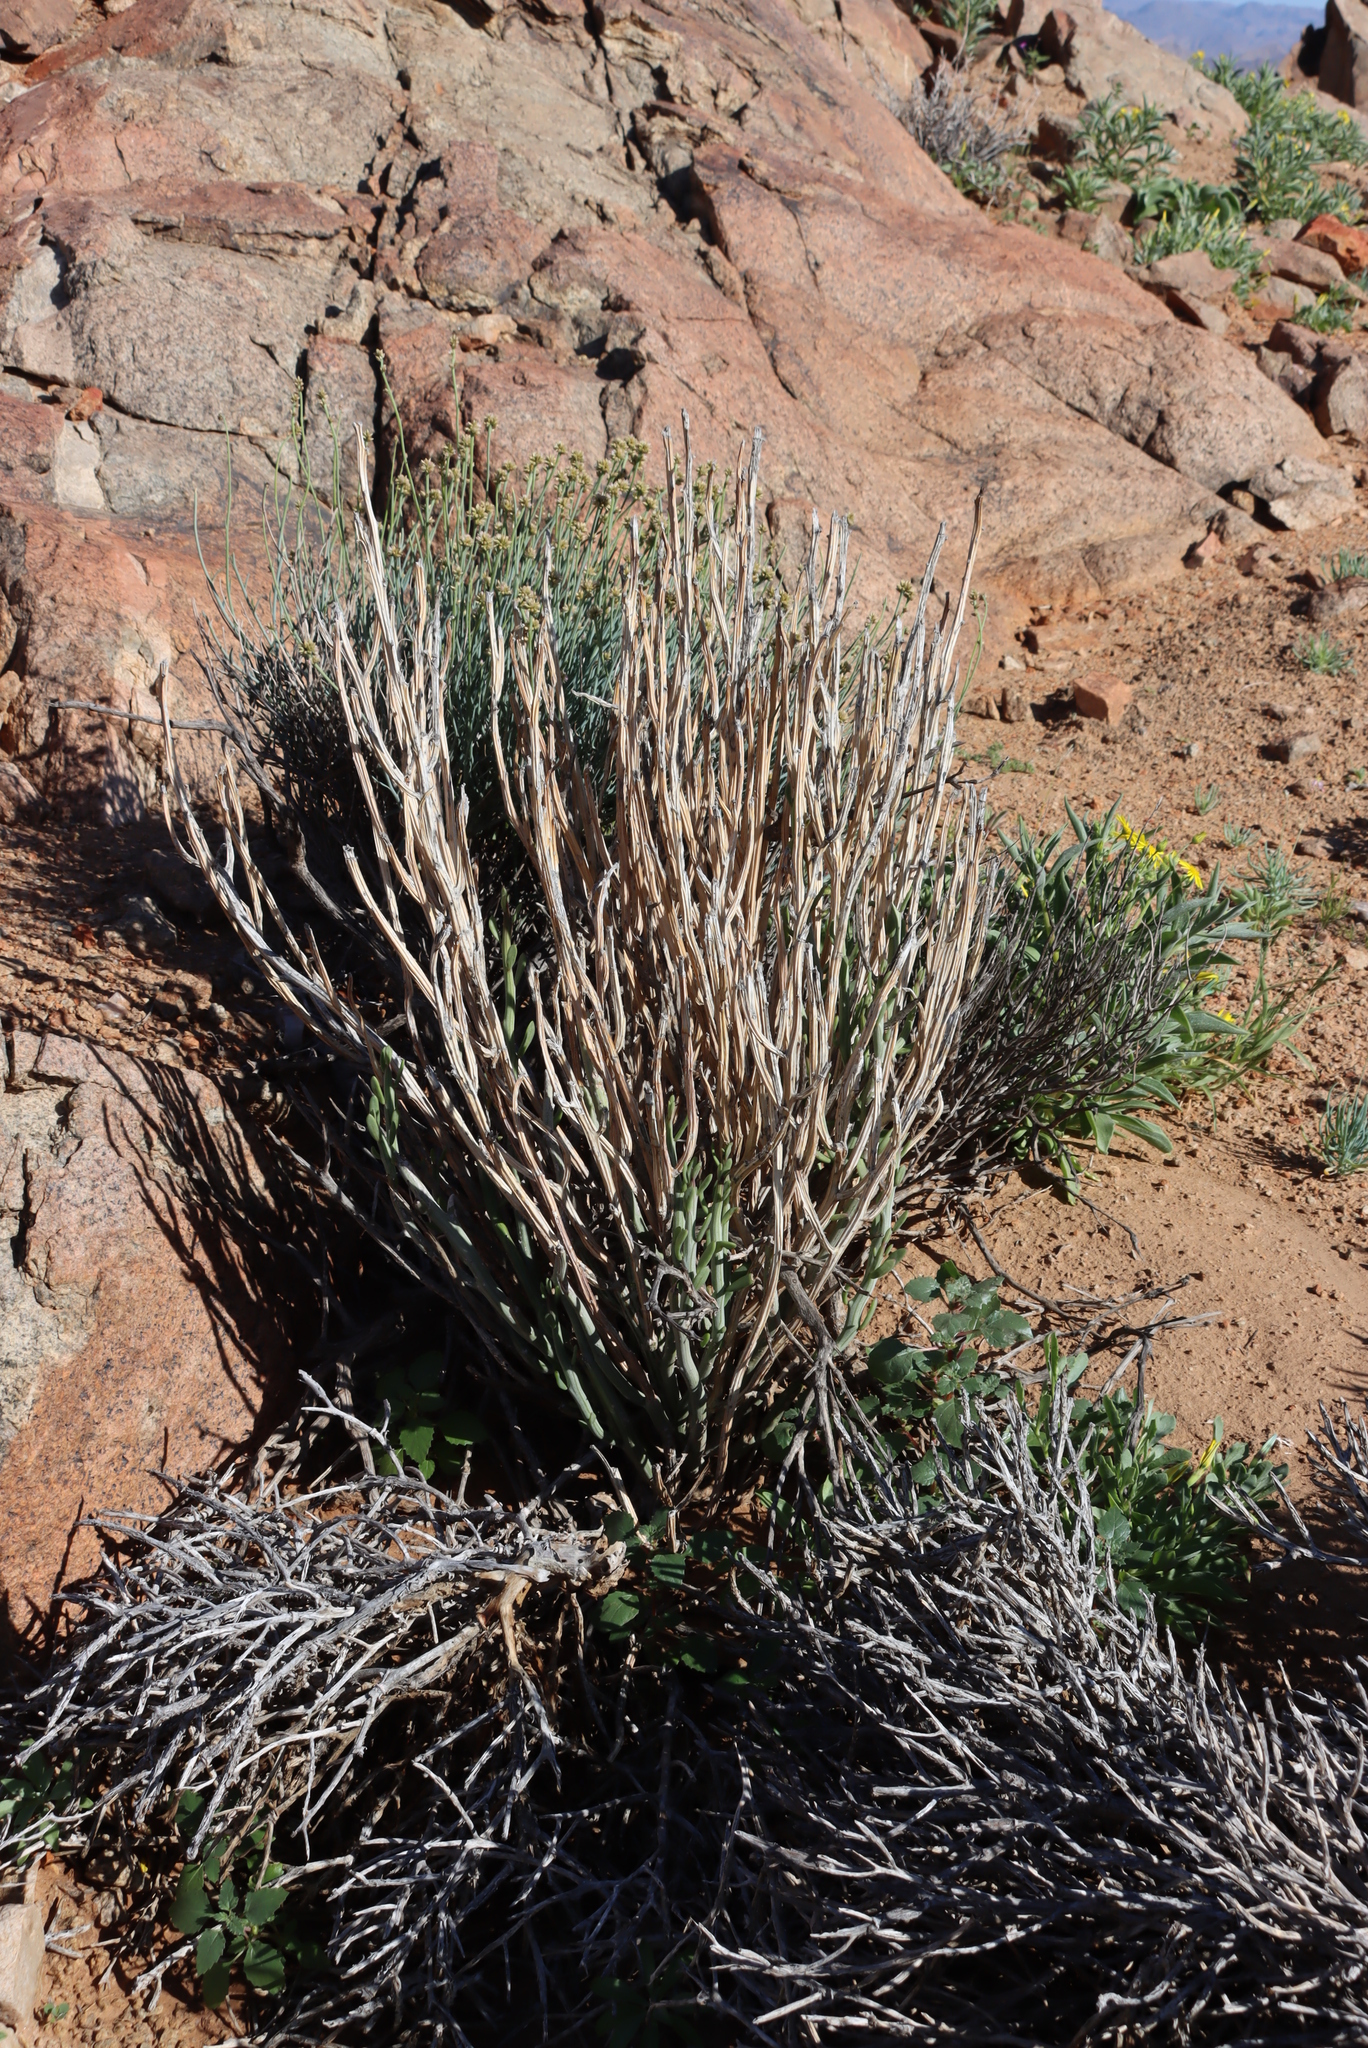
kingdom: Plantae
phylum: Tracheophyta
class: Magnoliopsida
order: Asterales
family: Asteraceae
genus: Curio
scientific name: Curio avasimontanus
